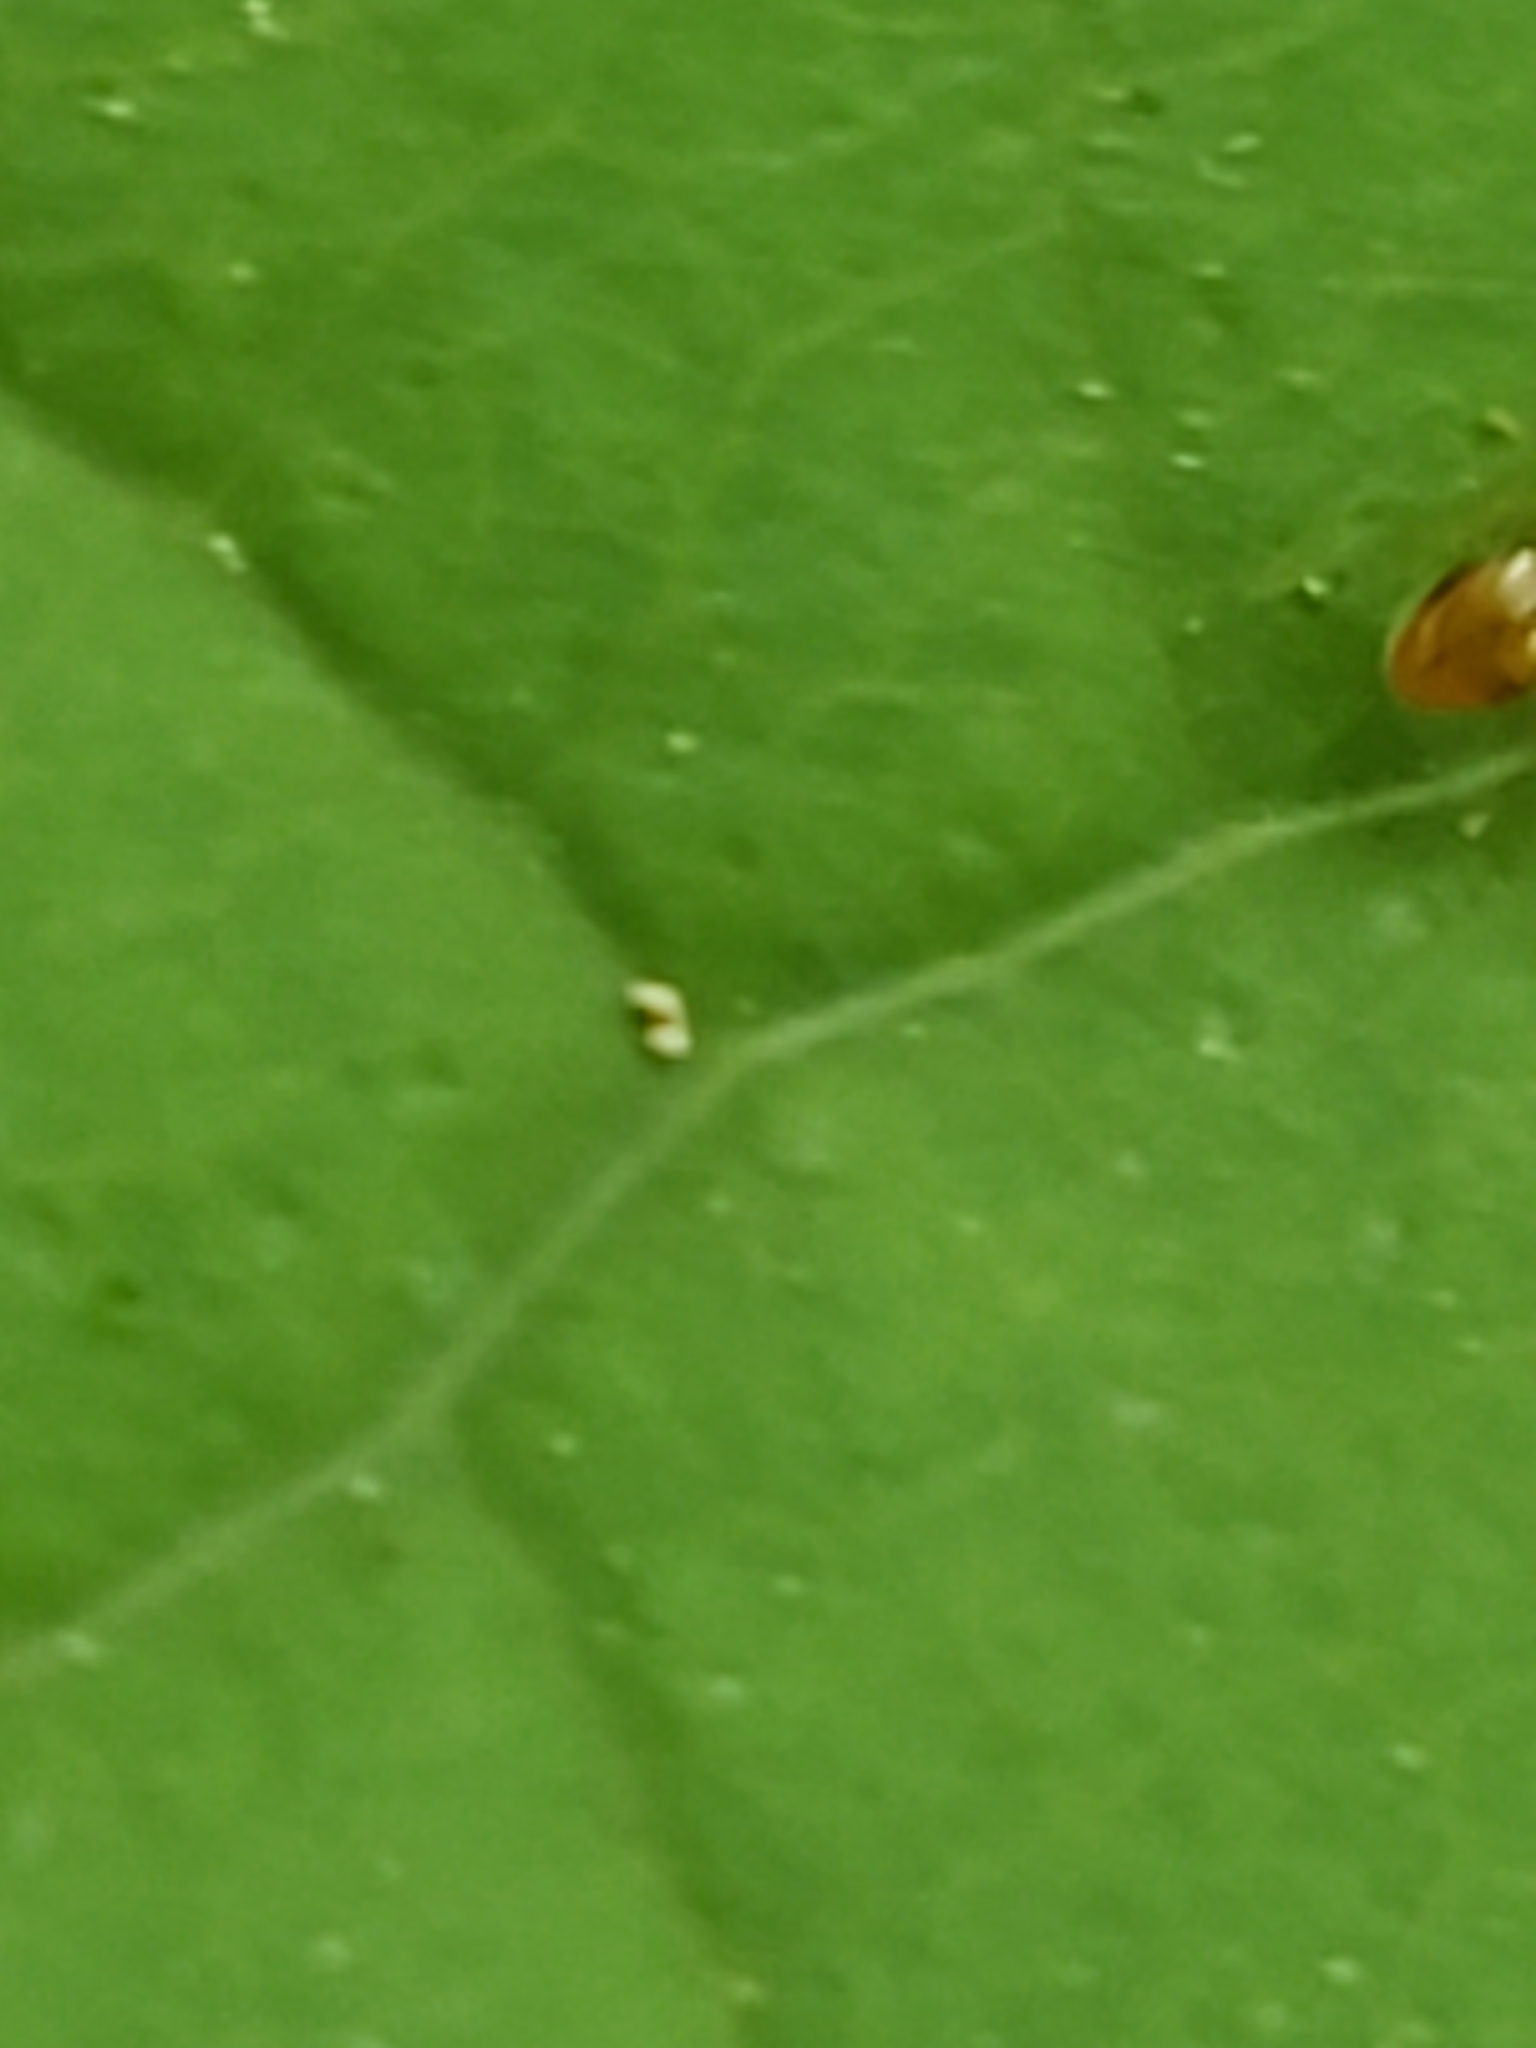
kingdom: Animalia
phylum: Arthropoda
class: Insecta
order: Hymenoptera
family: Formicidae
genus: Temnothorax
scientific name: Temnothorax curvispinosus
